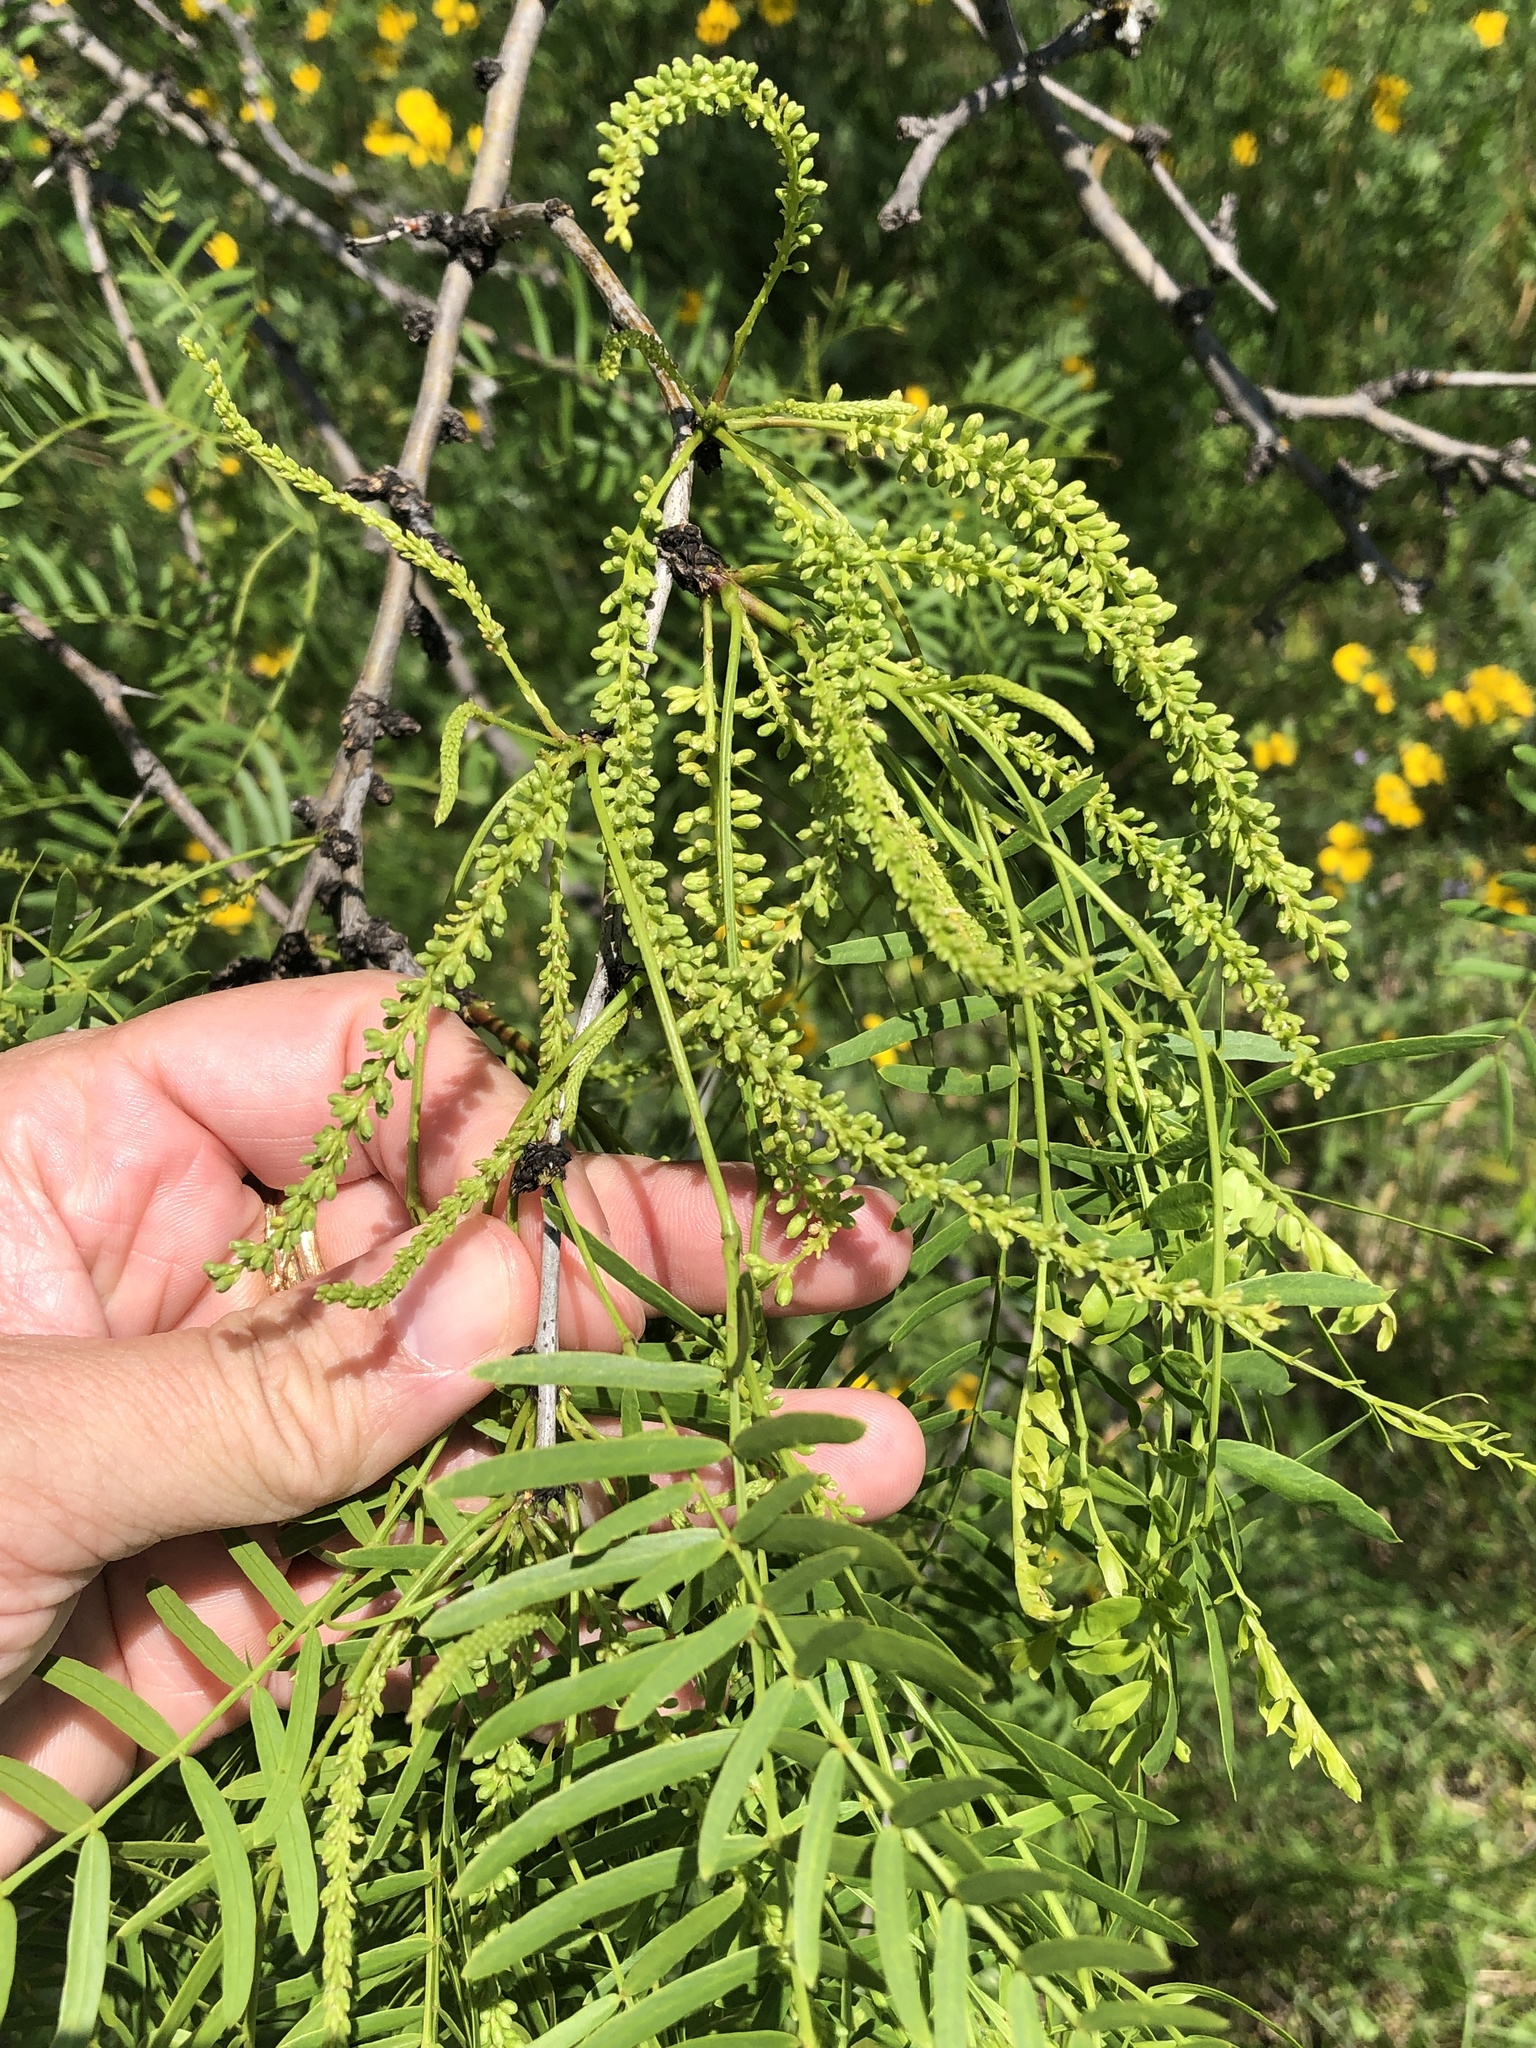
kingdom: Plantae
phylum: Tracheophyta
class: Magnoliopsida
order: Fabales
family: Fabaceae
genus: Prosopis
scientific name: Prosopis glandulosa
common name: Honey mesquite
